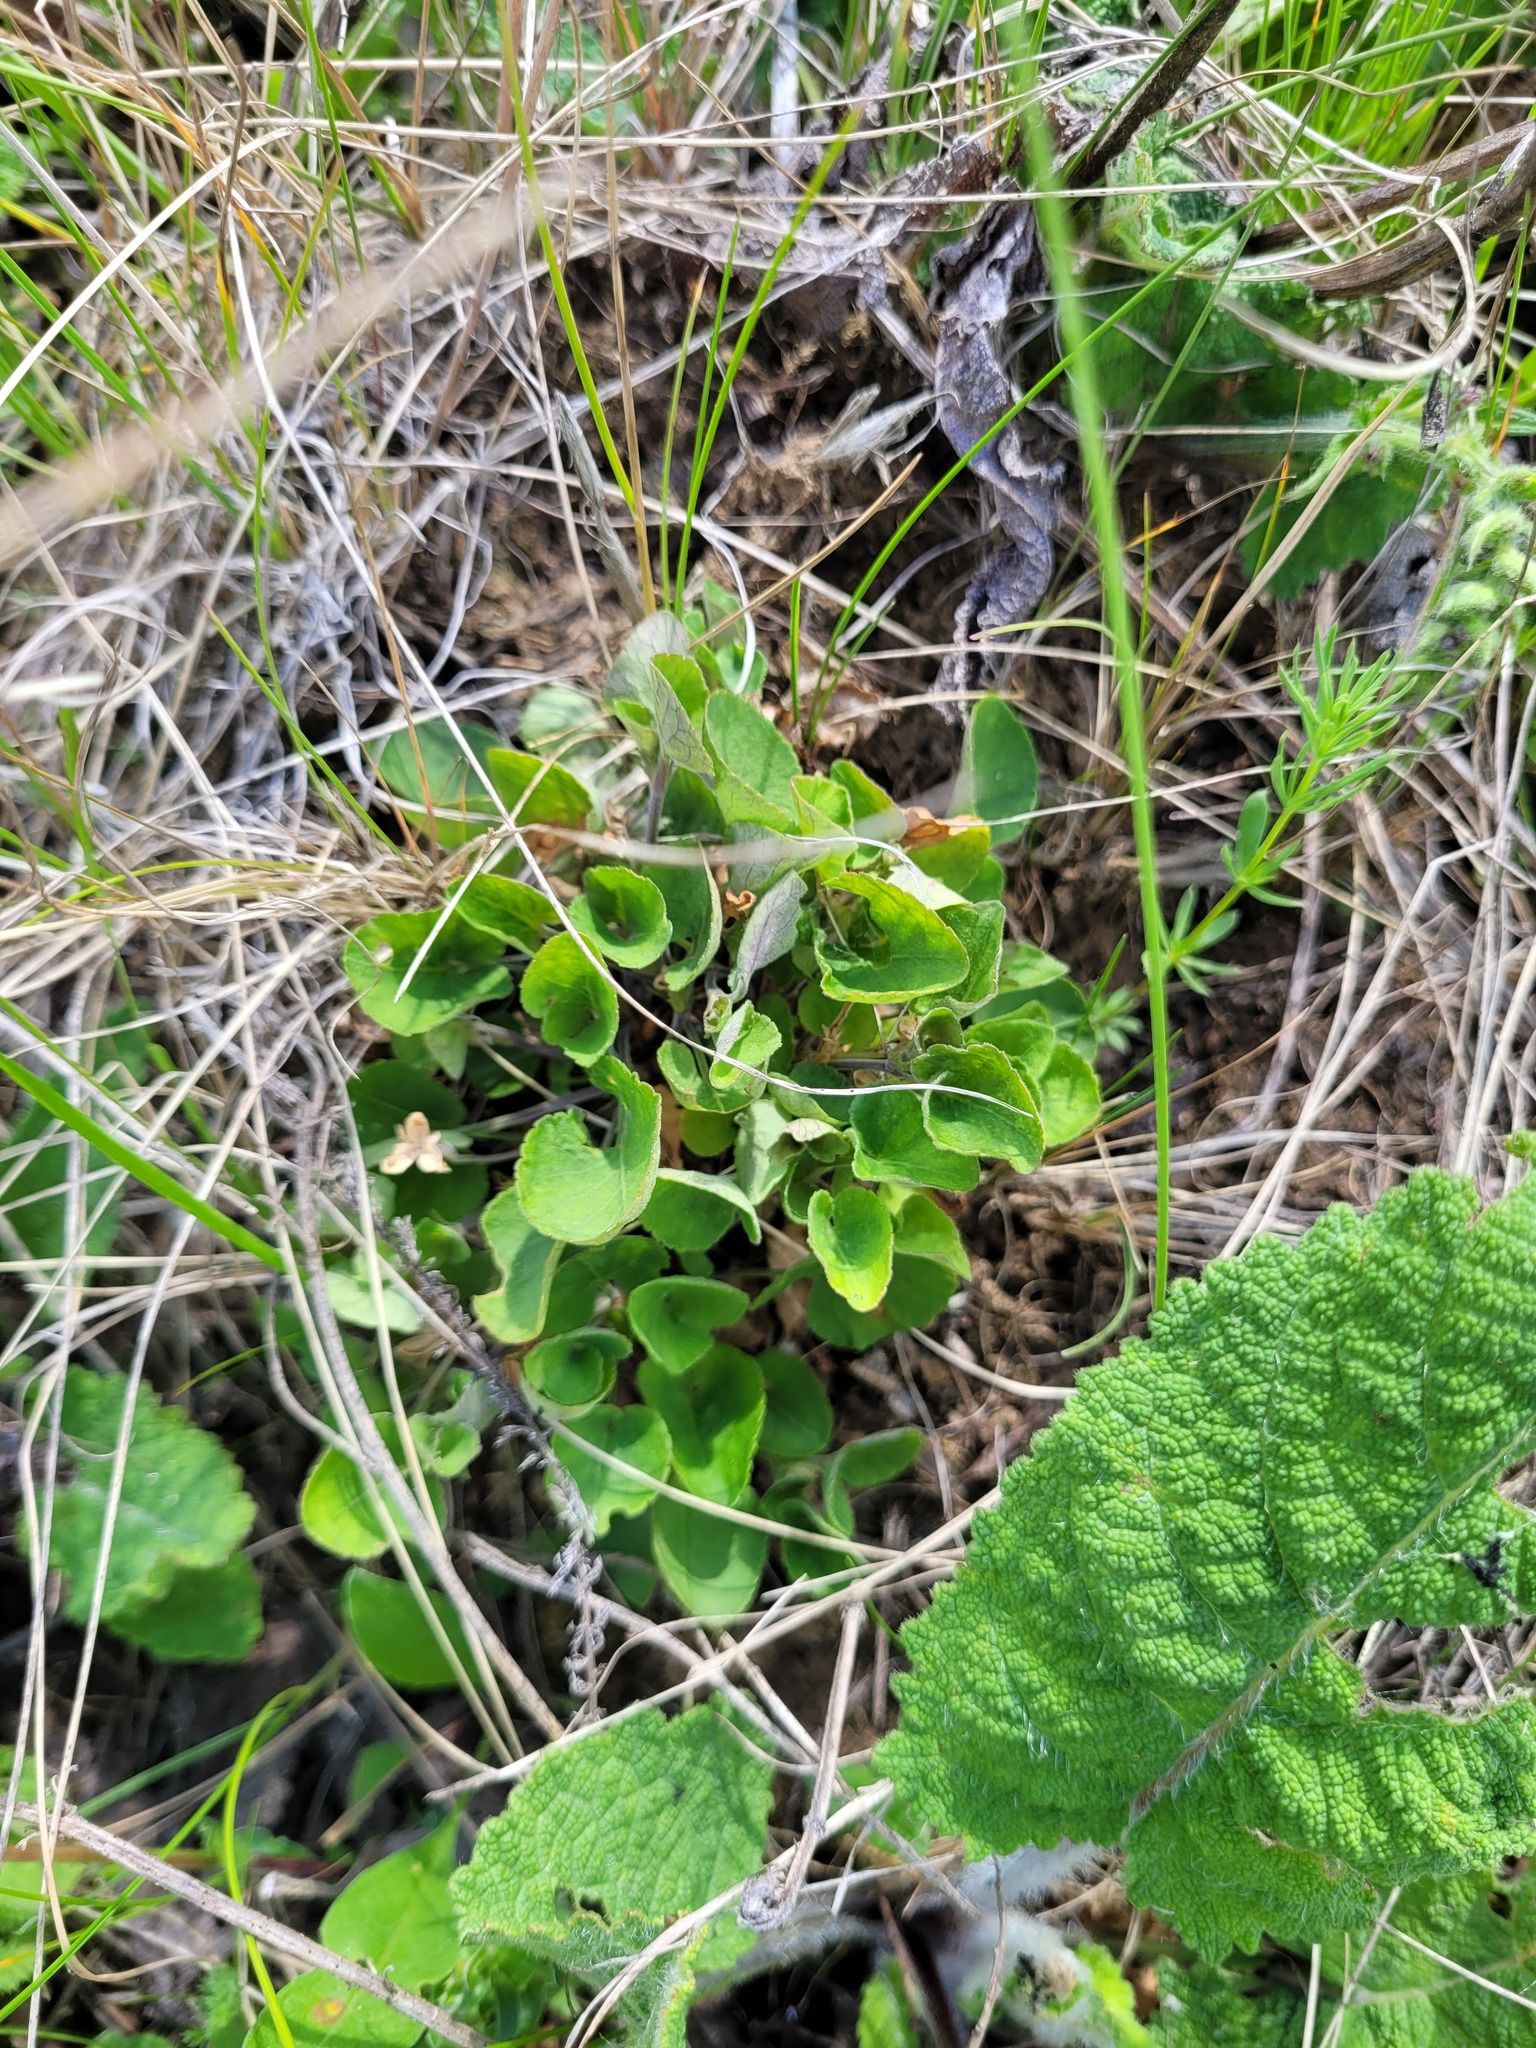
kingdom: Plantae
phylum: Tracheophyta
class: Magnoliopsida
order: Malpighiales
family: Violaceae
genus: Viola
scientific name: Viola rupestris
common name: Teesdale violet
